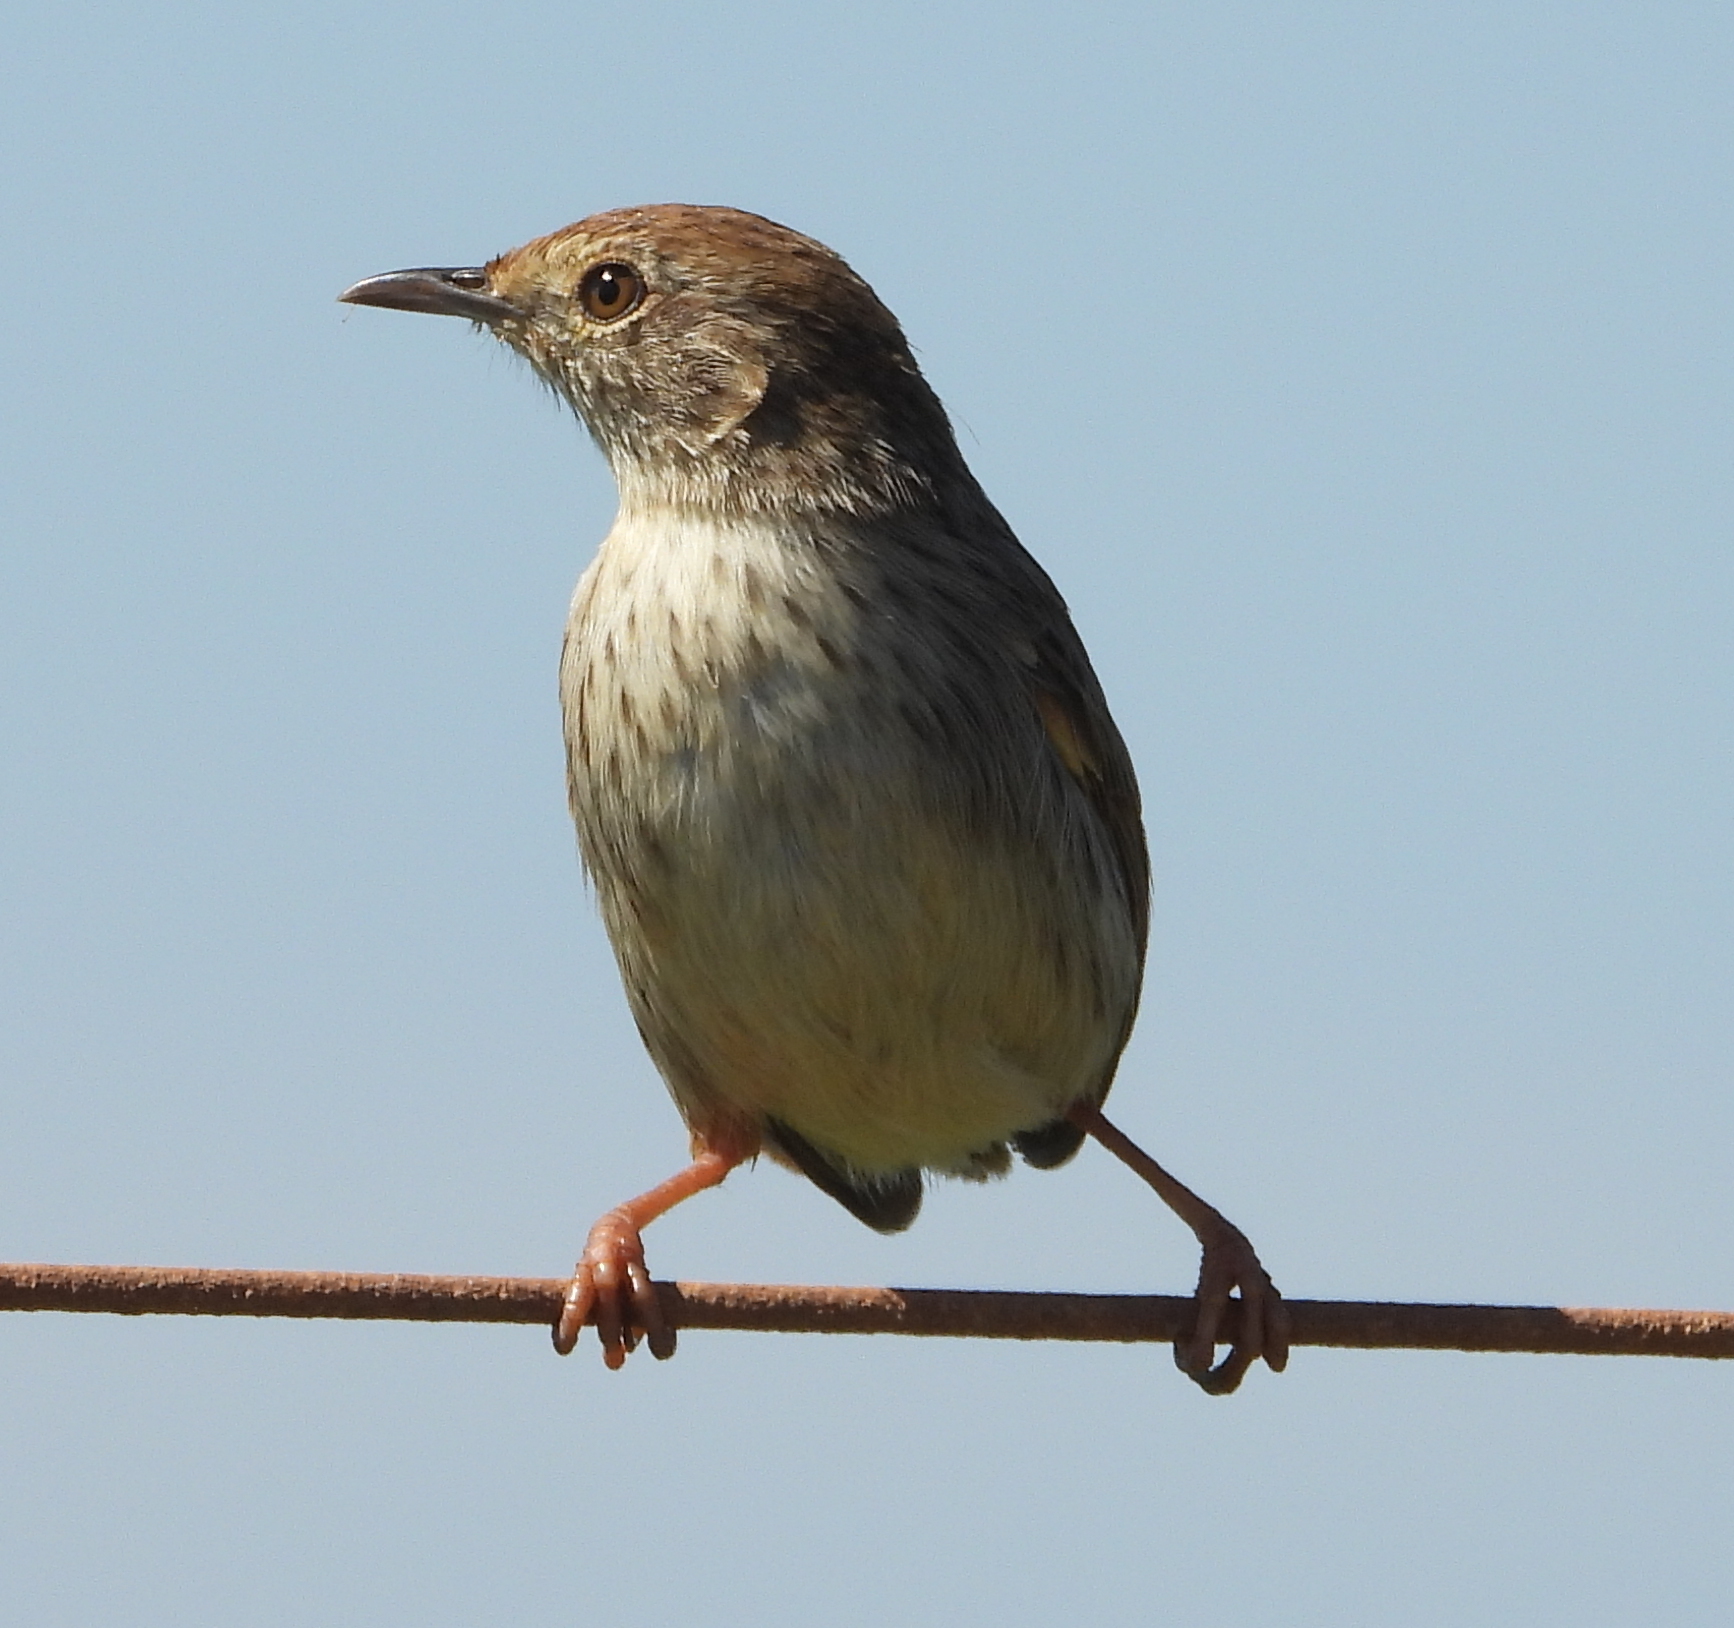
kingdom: Animalia
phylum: Chordata
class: Aves
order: Passeriformes
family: Cisticolidae
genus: Cisticola
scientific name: Cisticola subruficapilla
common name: Grey-backed cisticola
